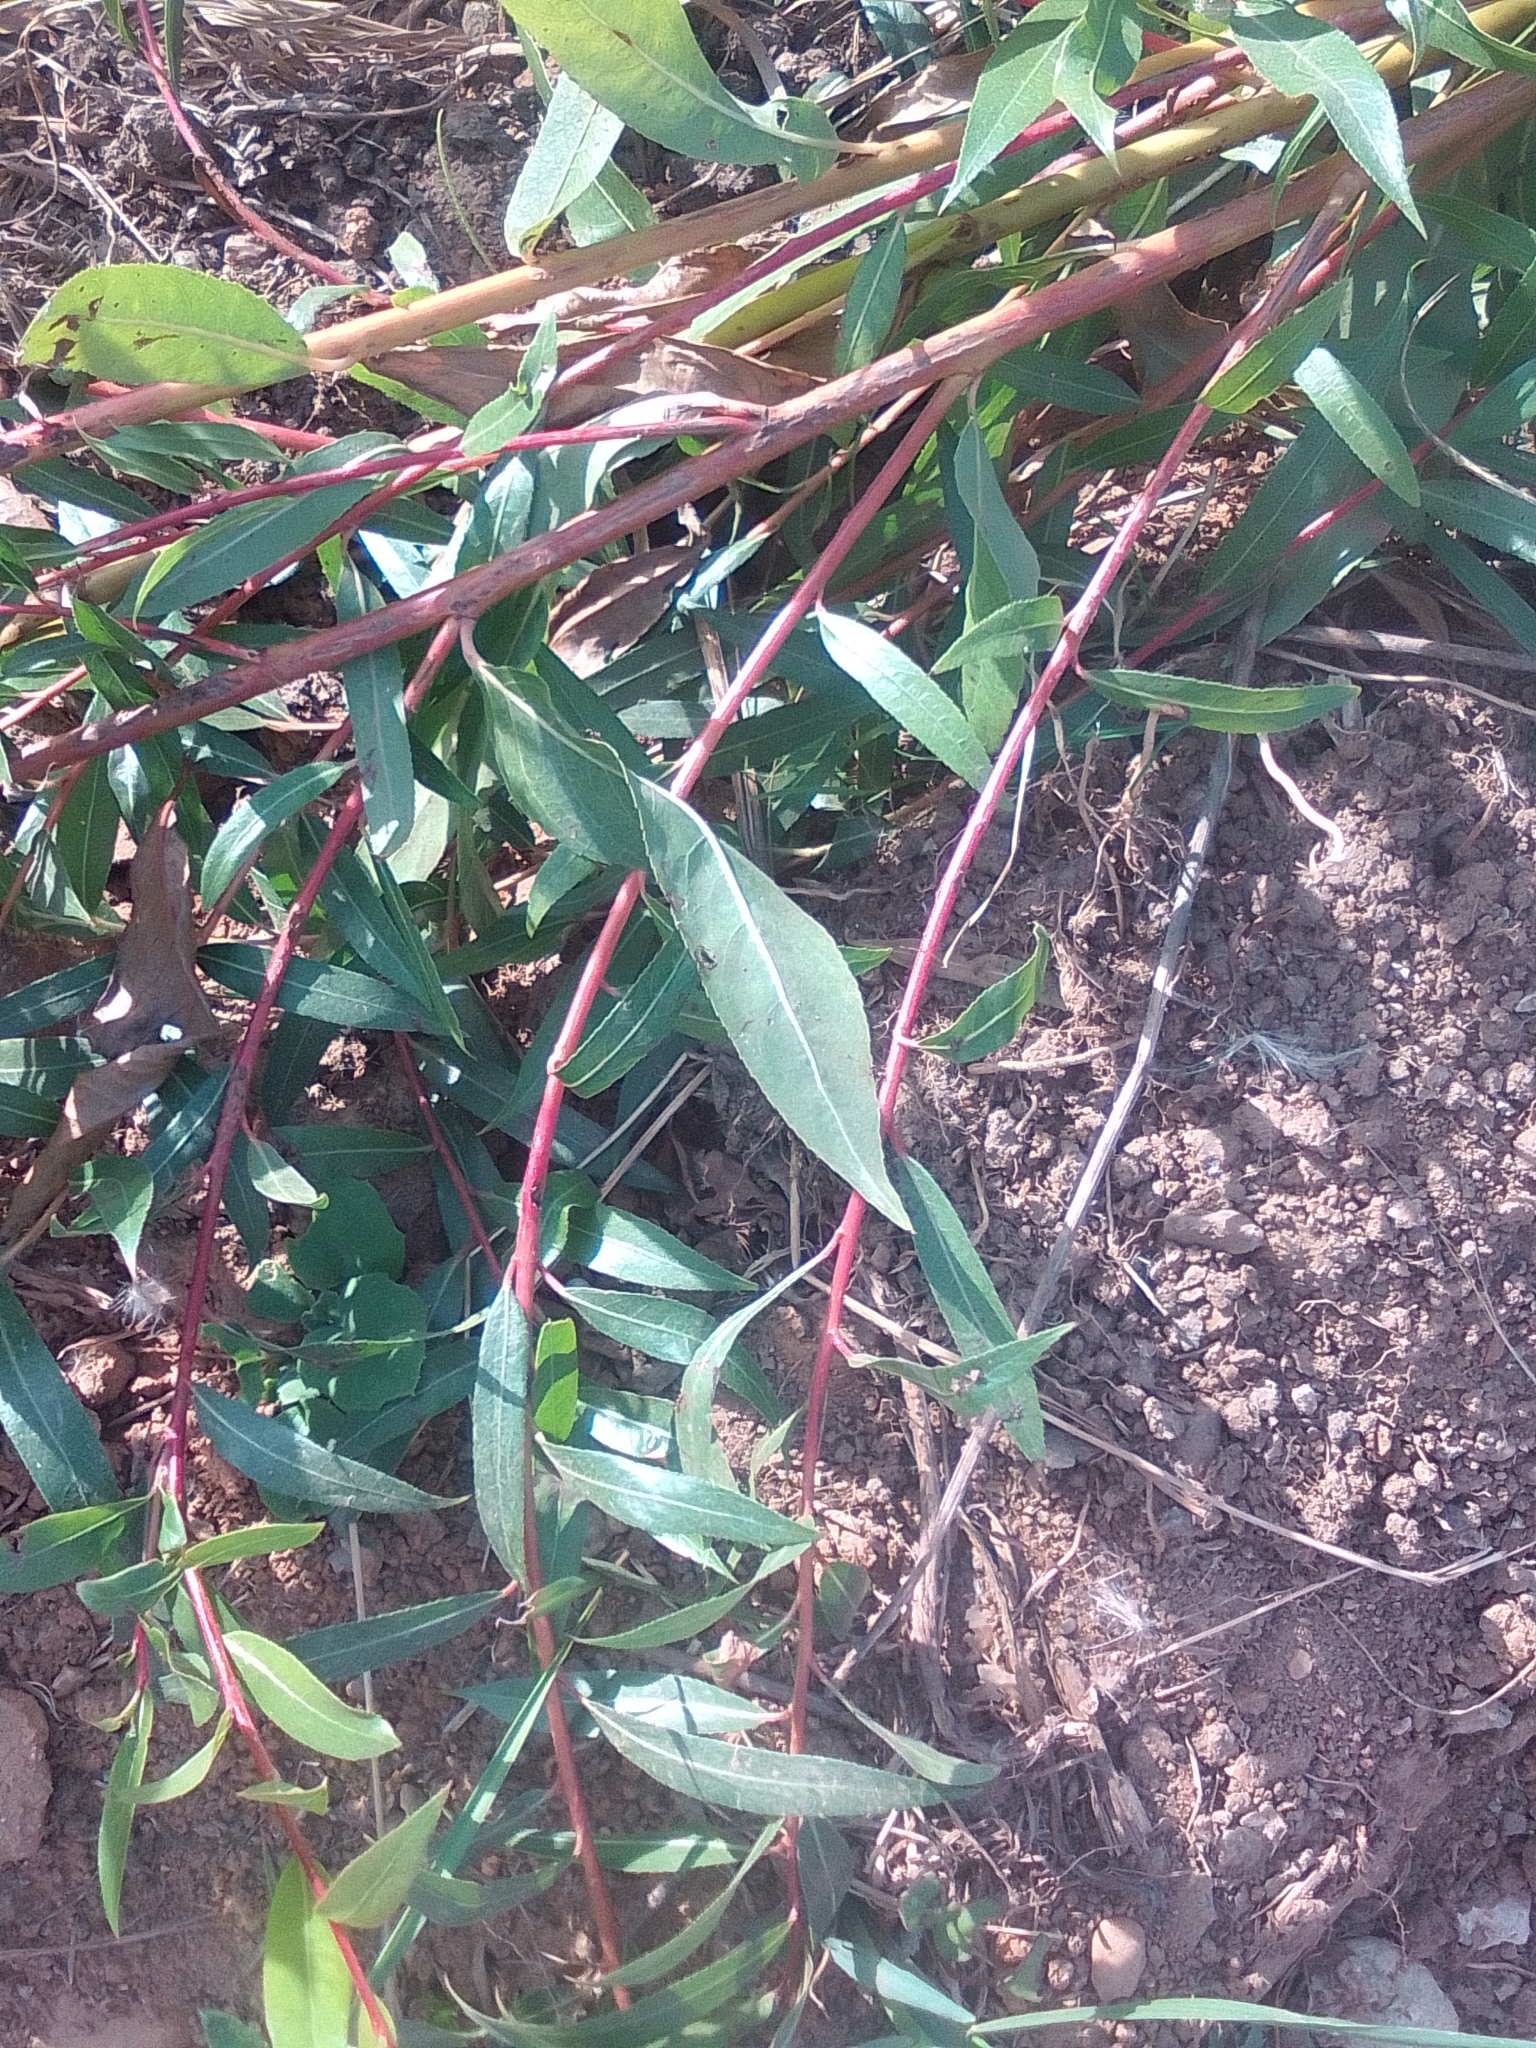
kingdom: Plantae
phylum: Tracheophyta
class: Magnoliopsida
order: Malpighiales
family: Salicaceae
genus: Salix
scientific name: Salix purpurea
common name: Purple willow
